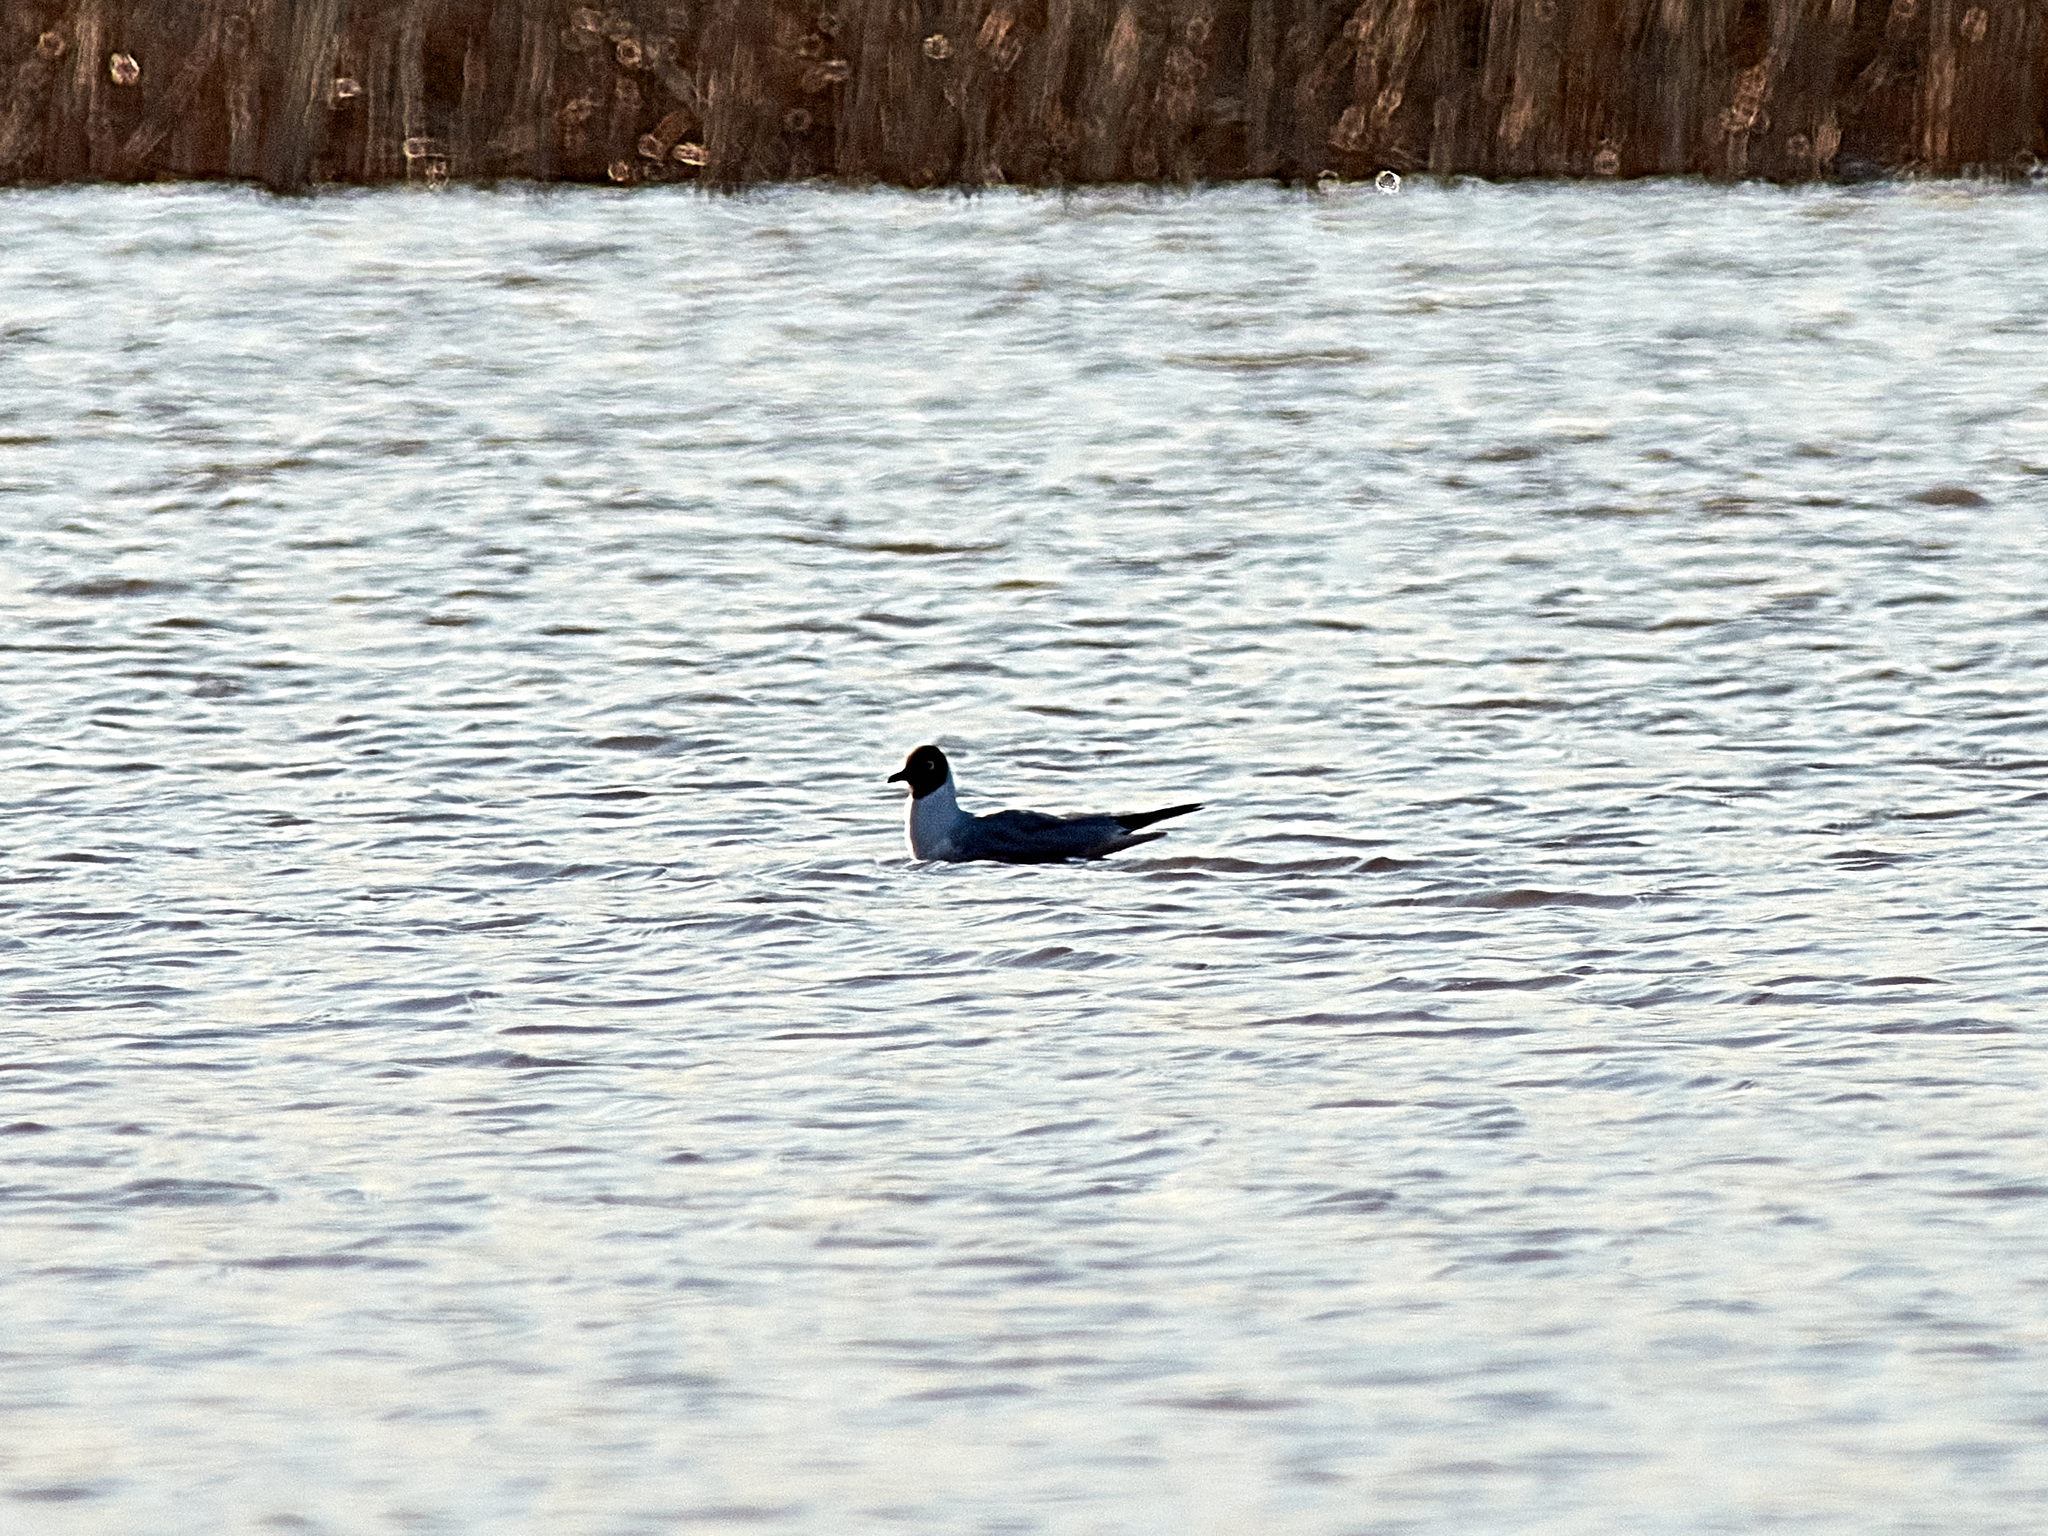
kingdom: Animalia
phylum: Chordata
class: Aves
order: Charadriiformes
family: Laridae
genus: Chroicocephalus
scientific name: Chroicocephalus ridibundus
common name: Black-headed gull
